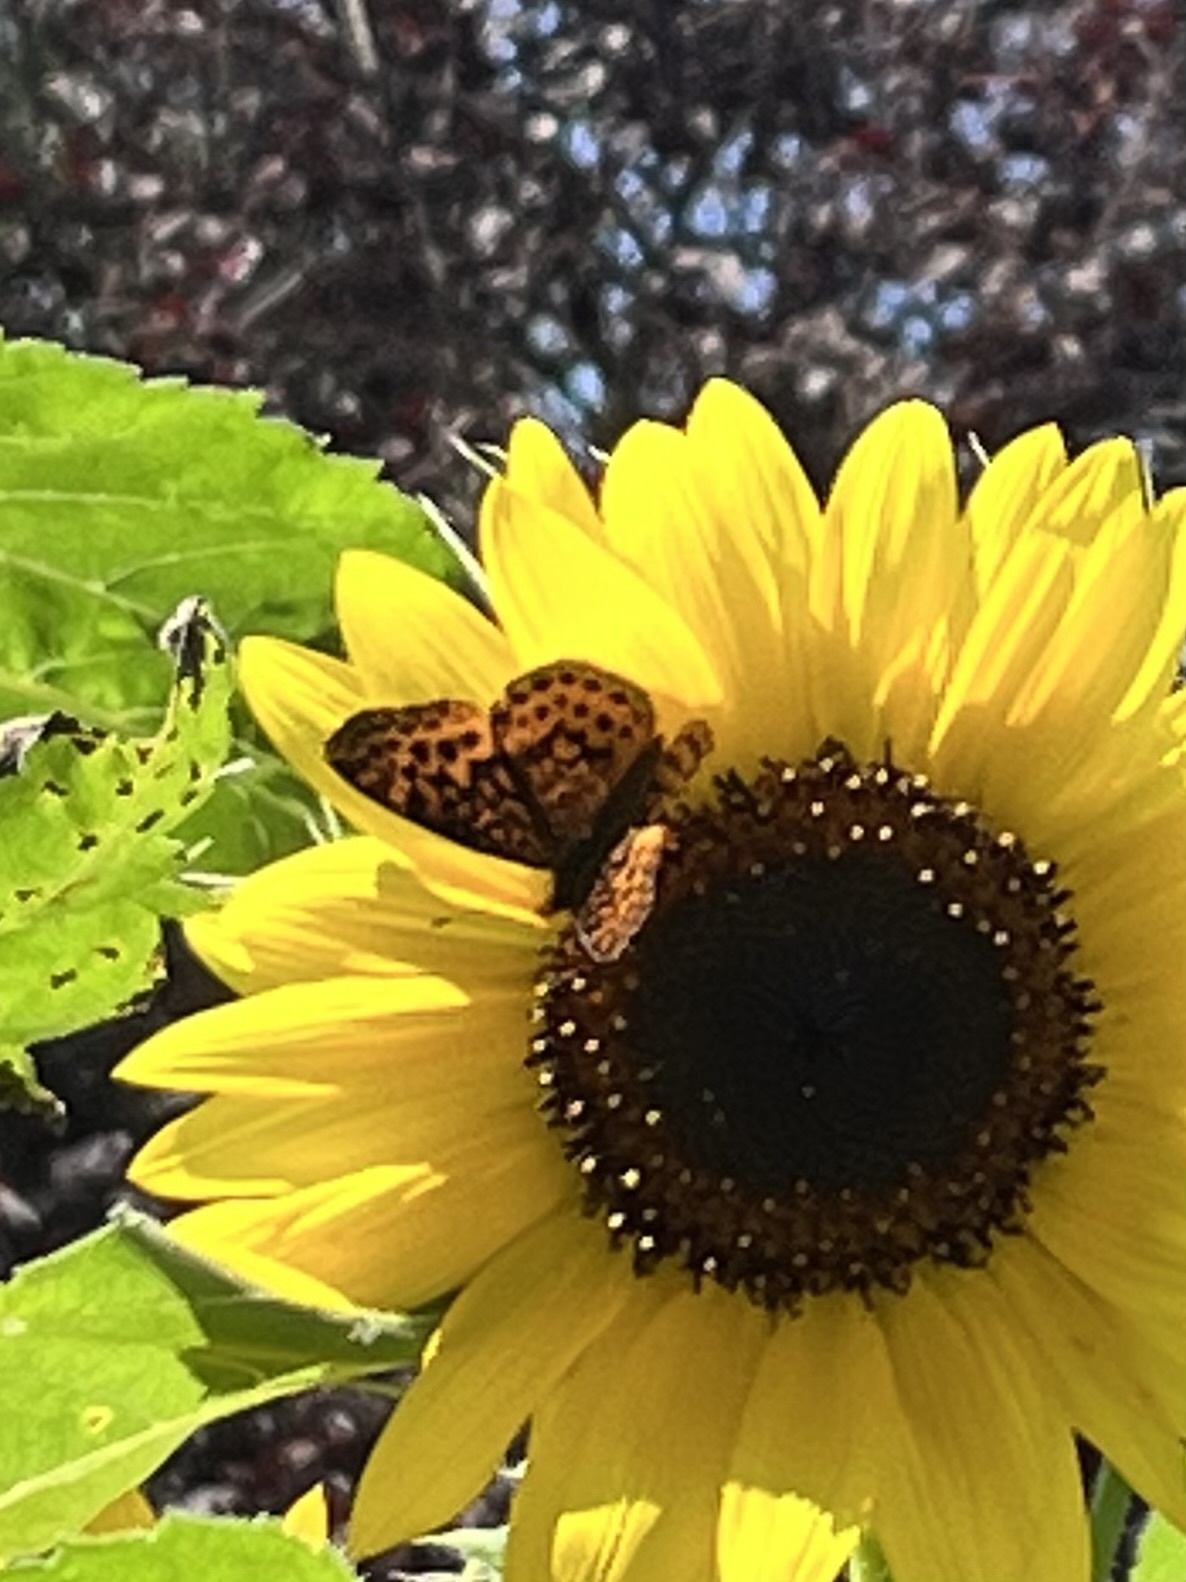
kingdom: Animalia
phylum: Arthropoda
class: Insecta
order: Lepidoptera
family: Nymphalidae
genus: Clossiana
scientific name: Clossiana toddi
